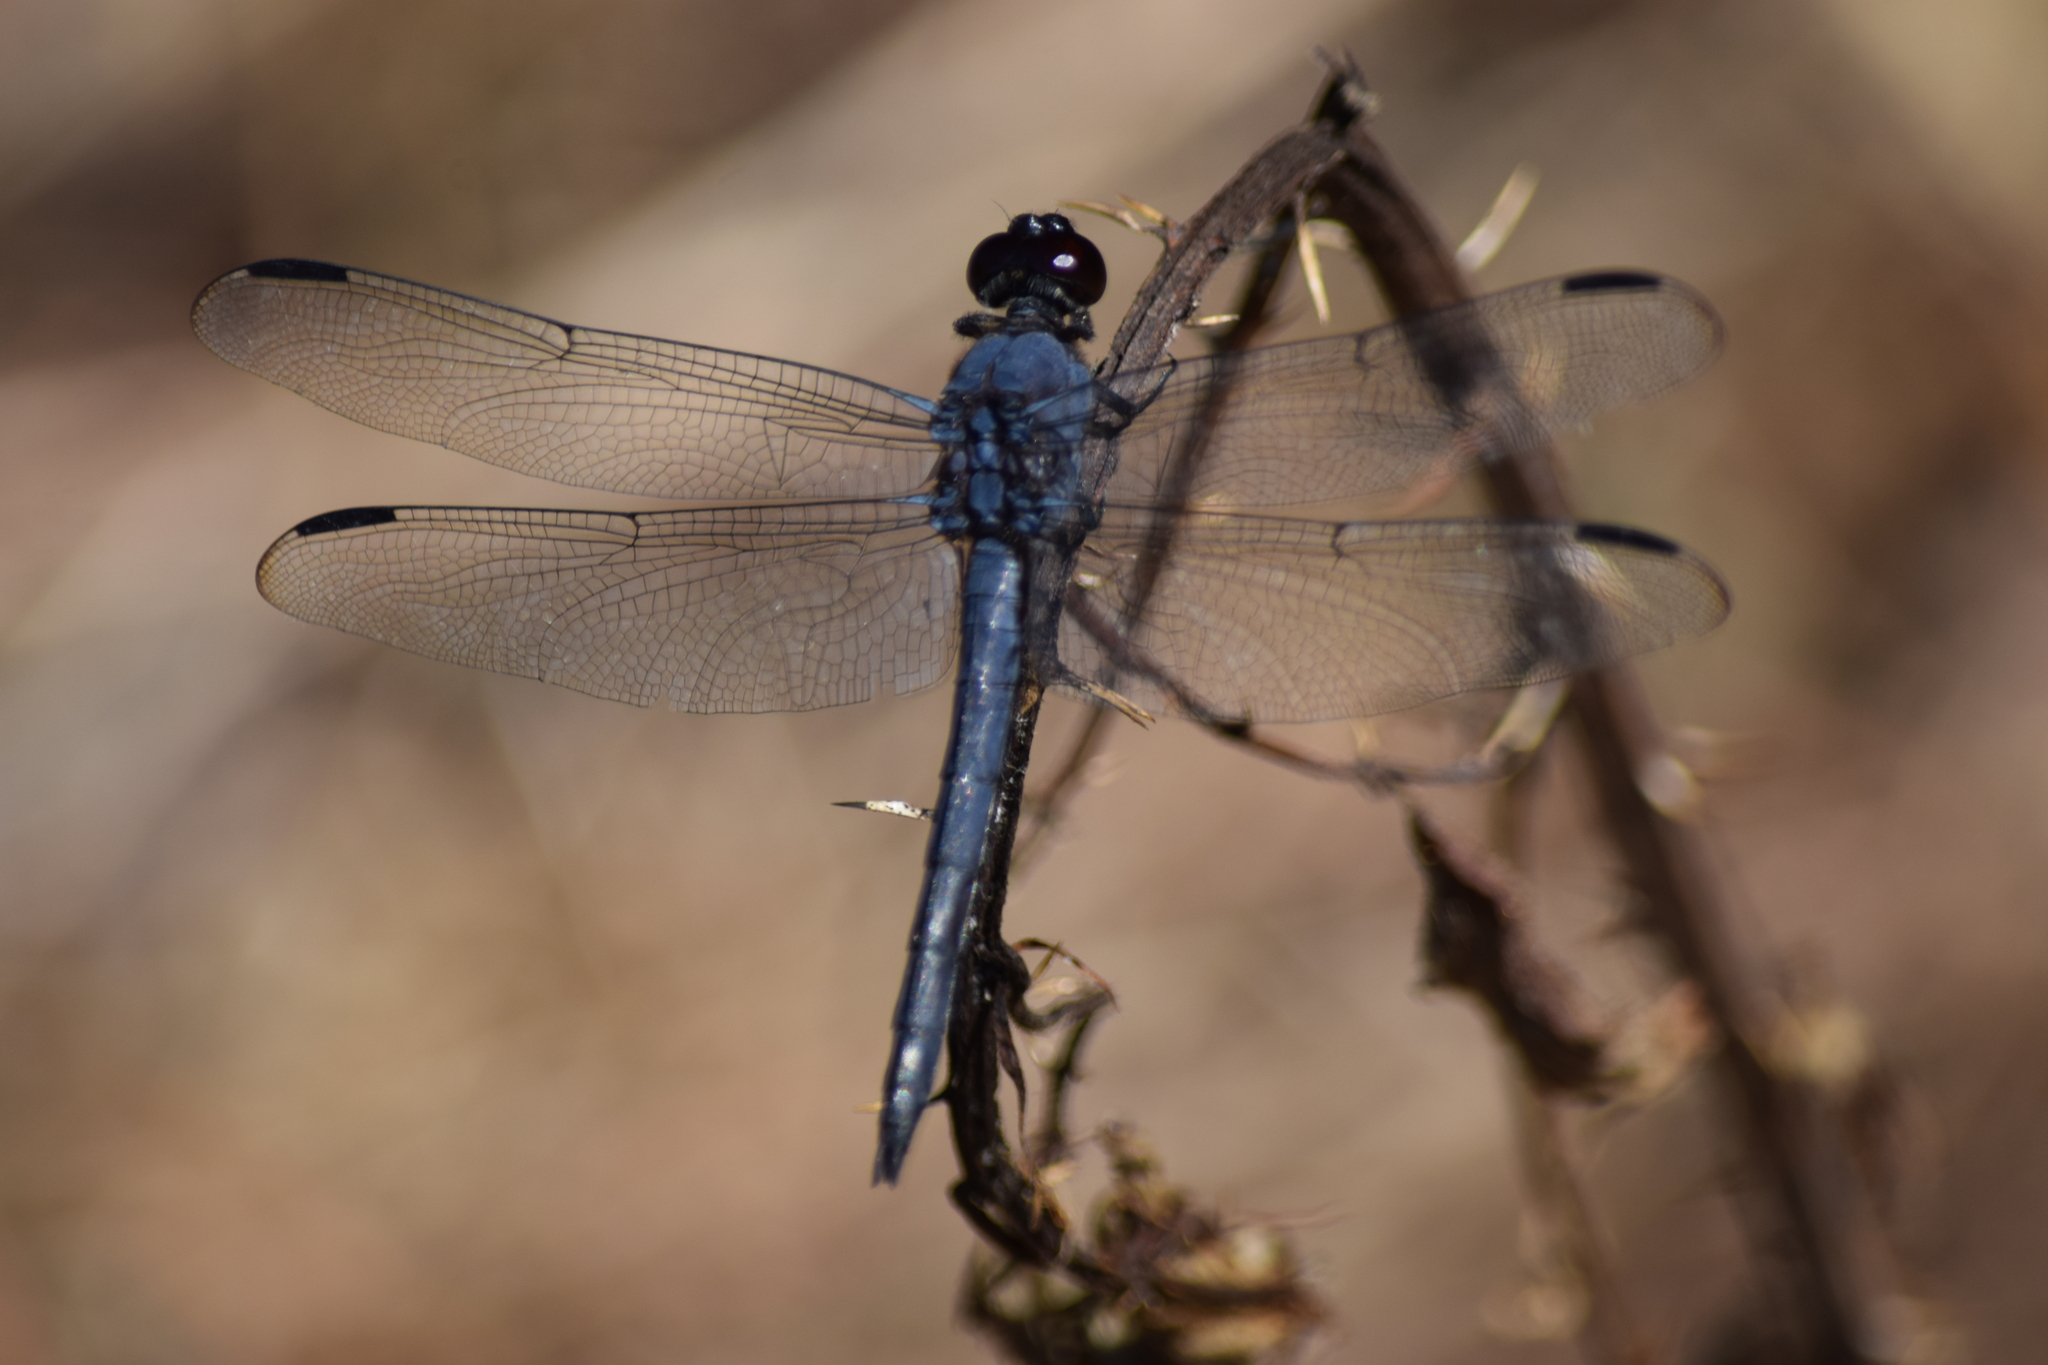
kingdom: Animalia
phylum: Arthropoda
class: Insecta
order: Odonata
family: Libellulidae
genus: Libellula
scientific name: Libellula incesta
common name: Slaty skimmer
